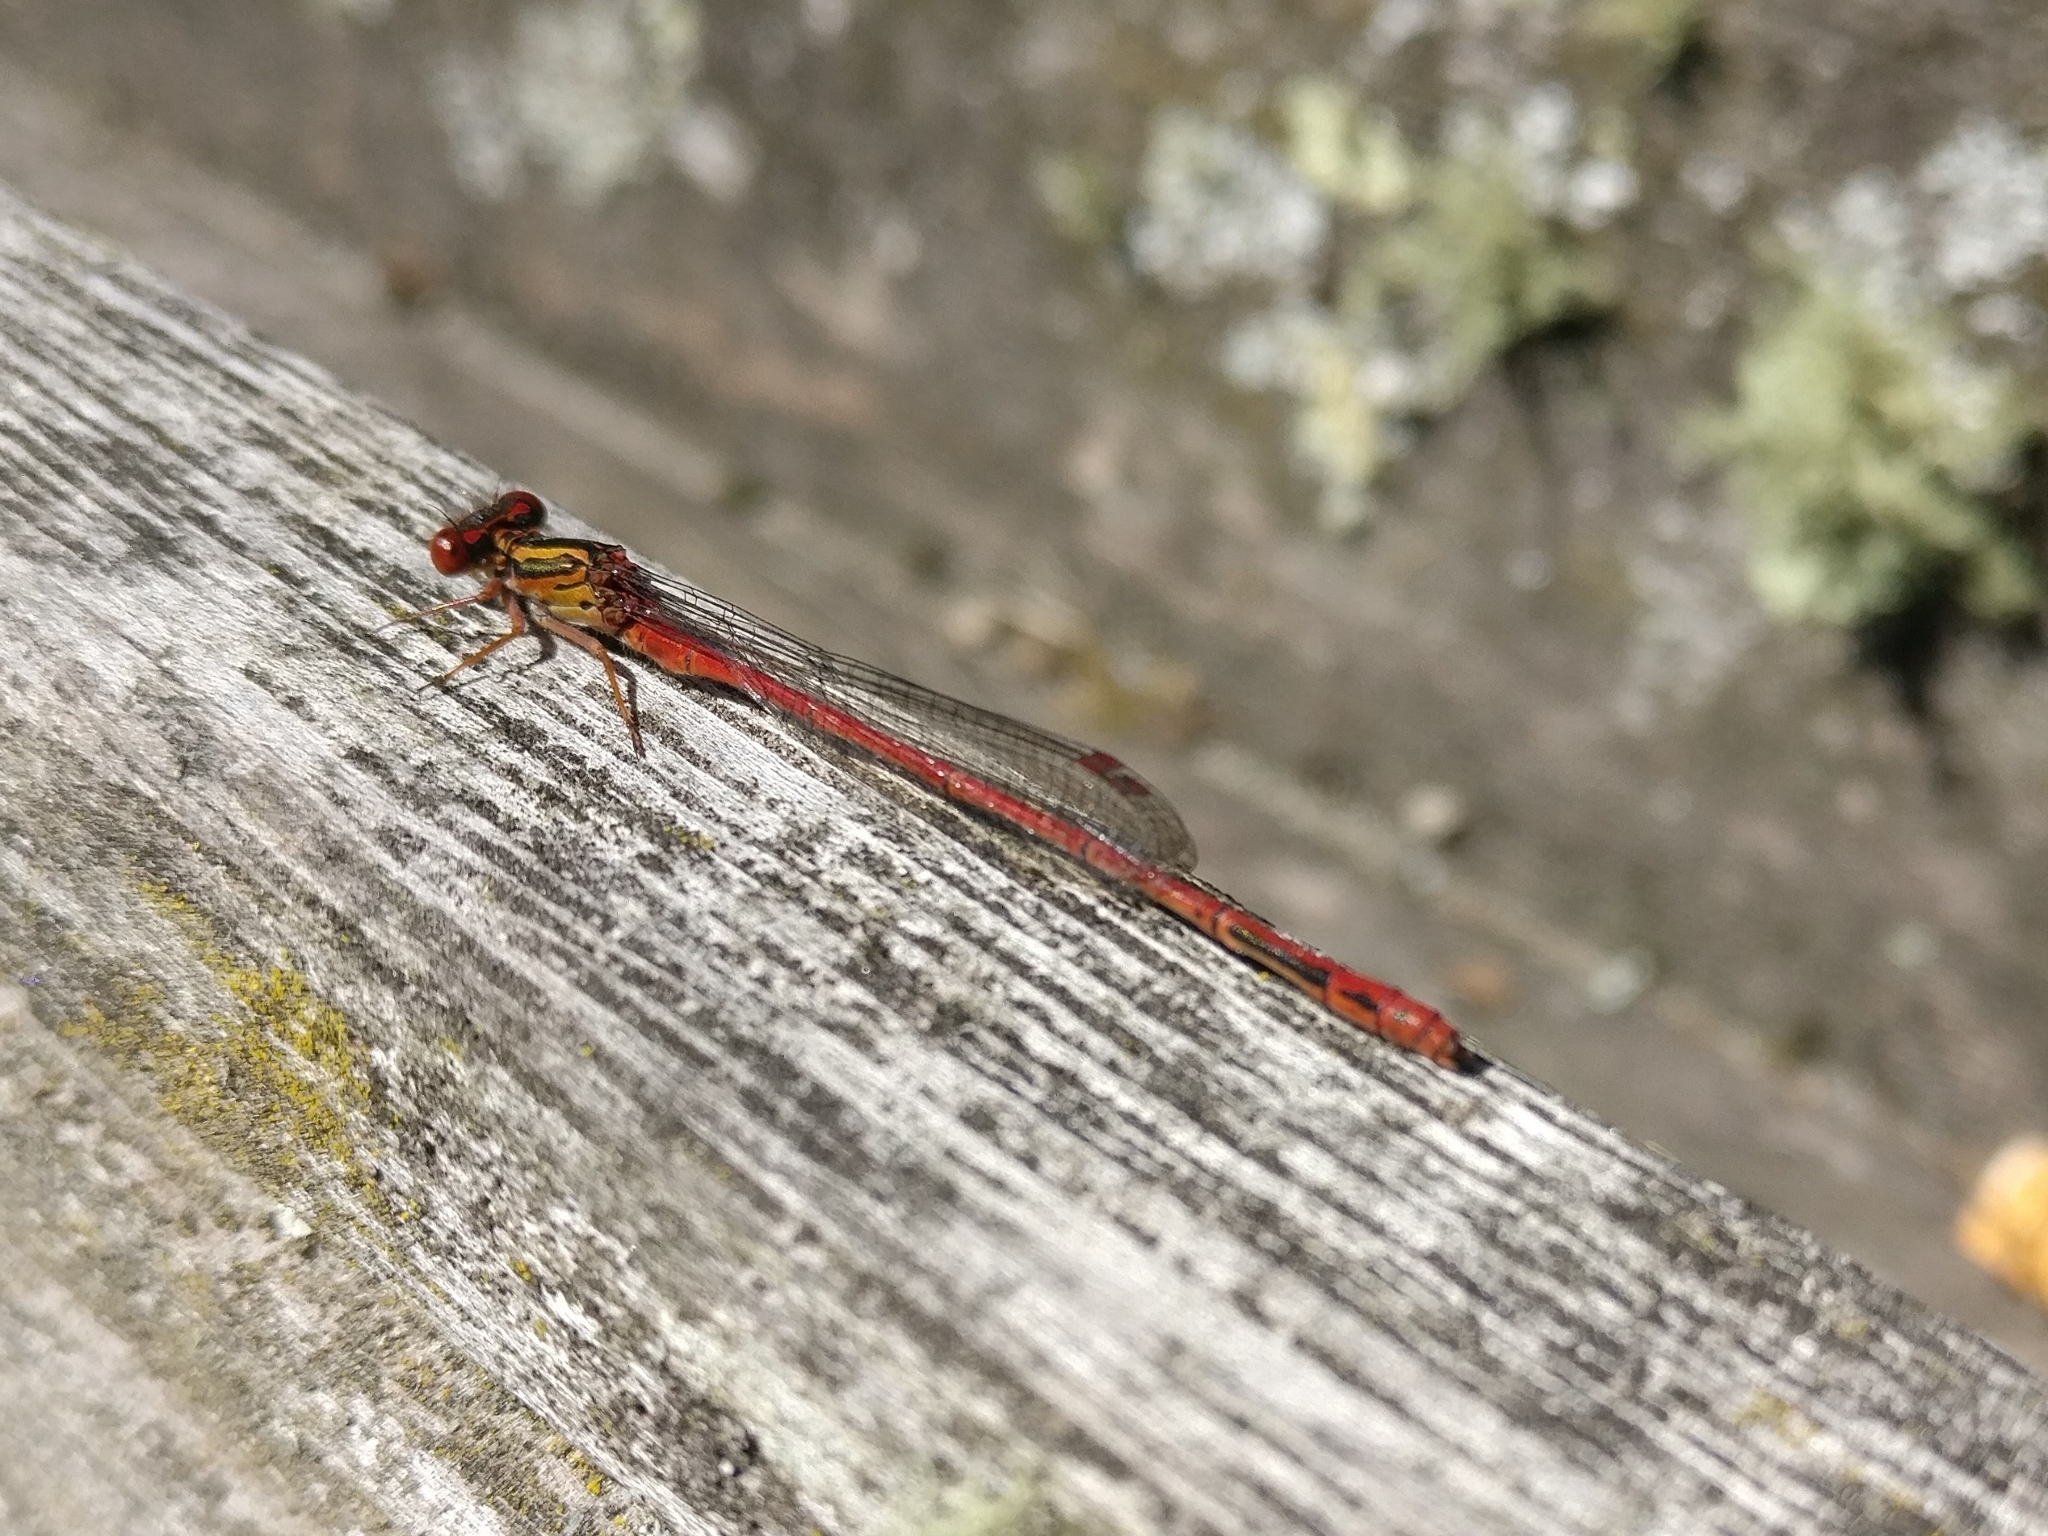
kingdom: Animalia
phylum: Arthropoda
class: Insecta
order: Odonata
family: Coenagrionidae
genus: Xanthocnemis
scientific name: Xanthocnemis zealandica
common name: Common redcoat damselfly
